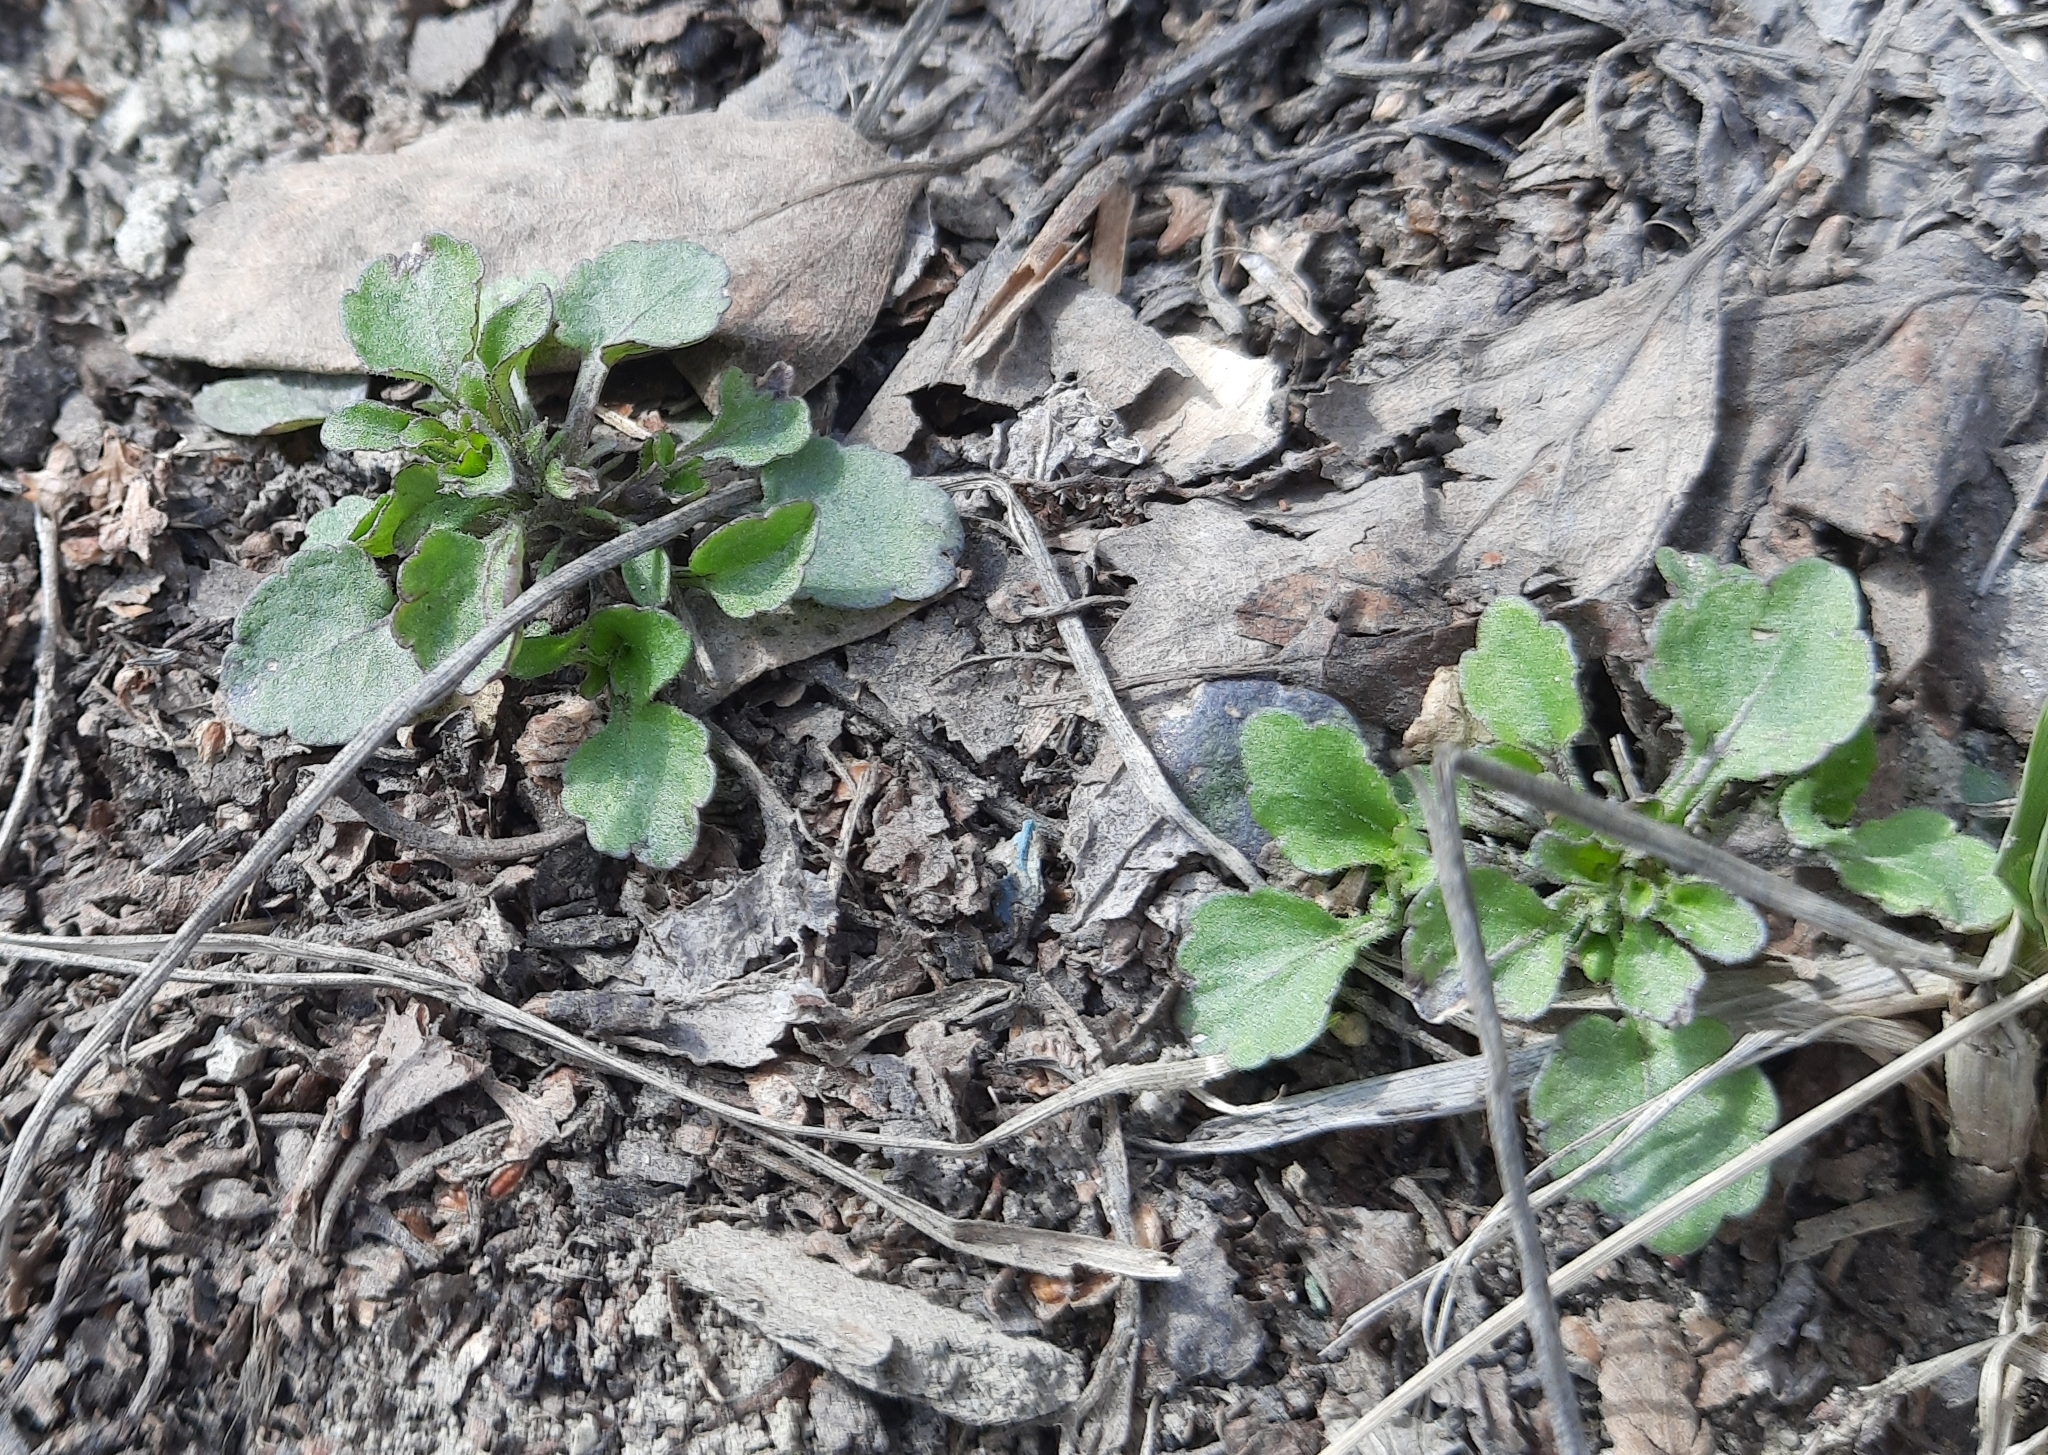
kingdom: Plantae
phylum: Tracheophyta
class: Magnoliopsida
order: Malpighiales
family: Violaceae
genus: Viola
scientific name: Viola arvensis
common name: Field pansy
